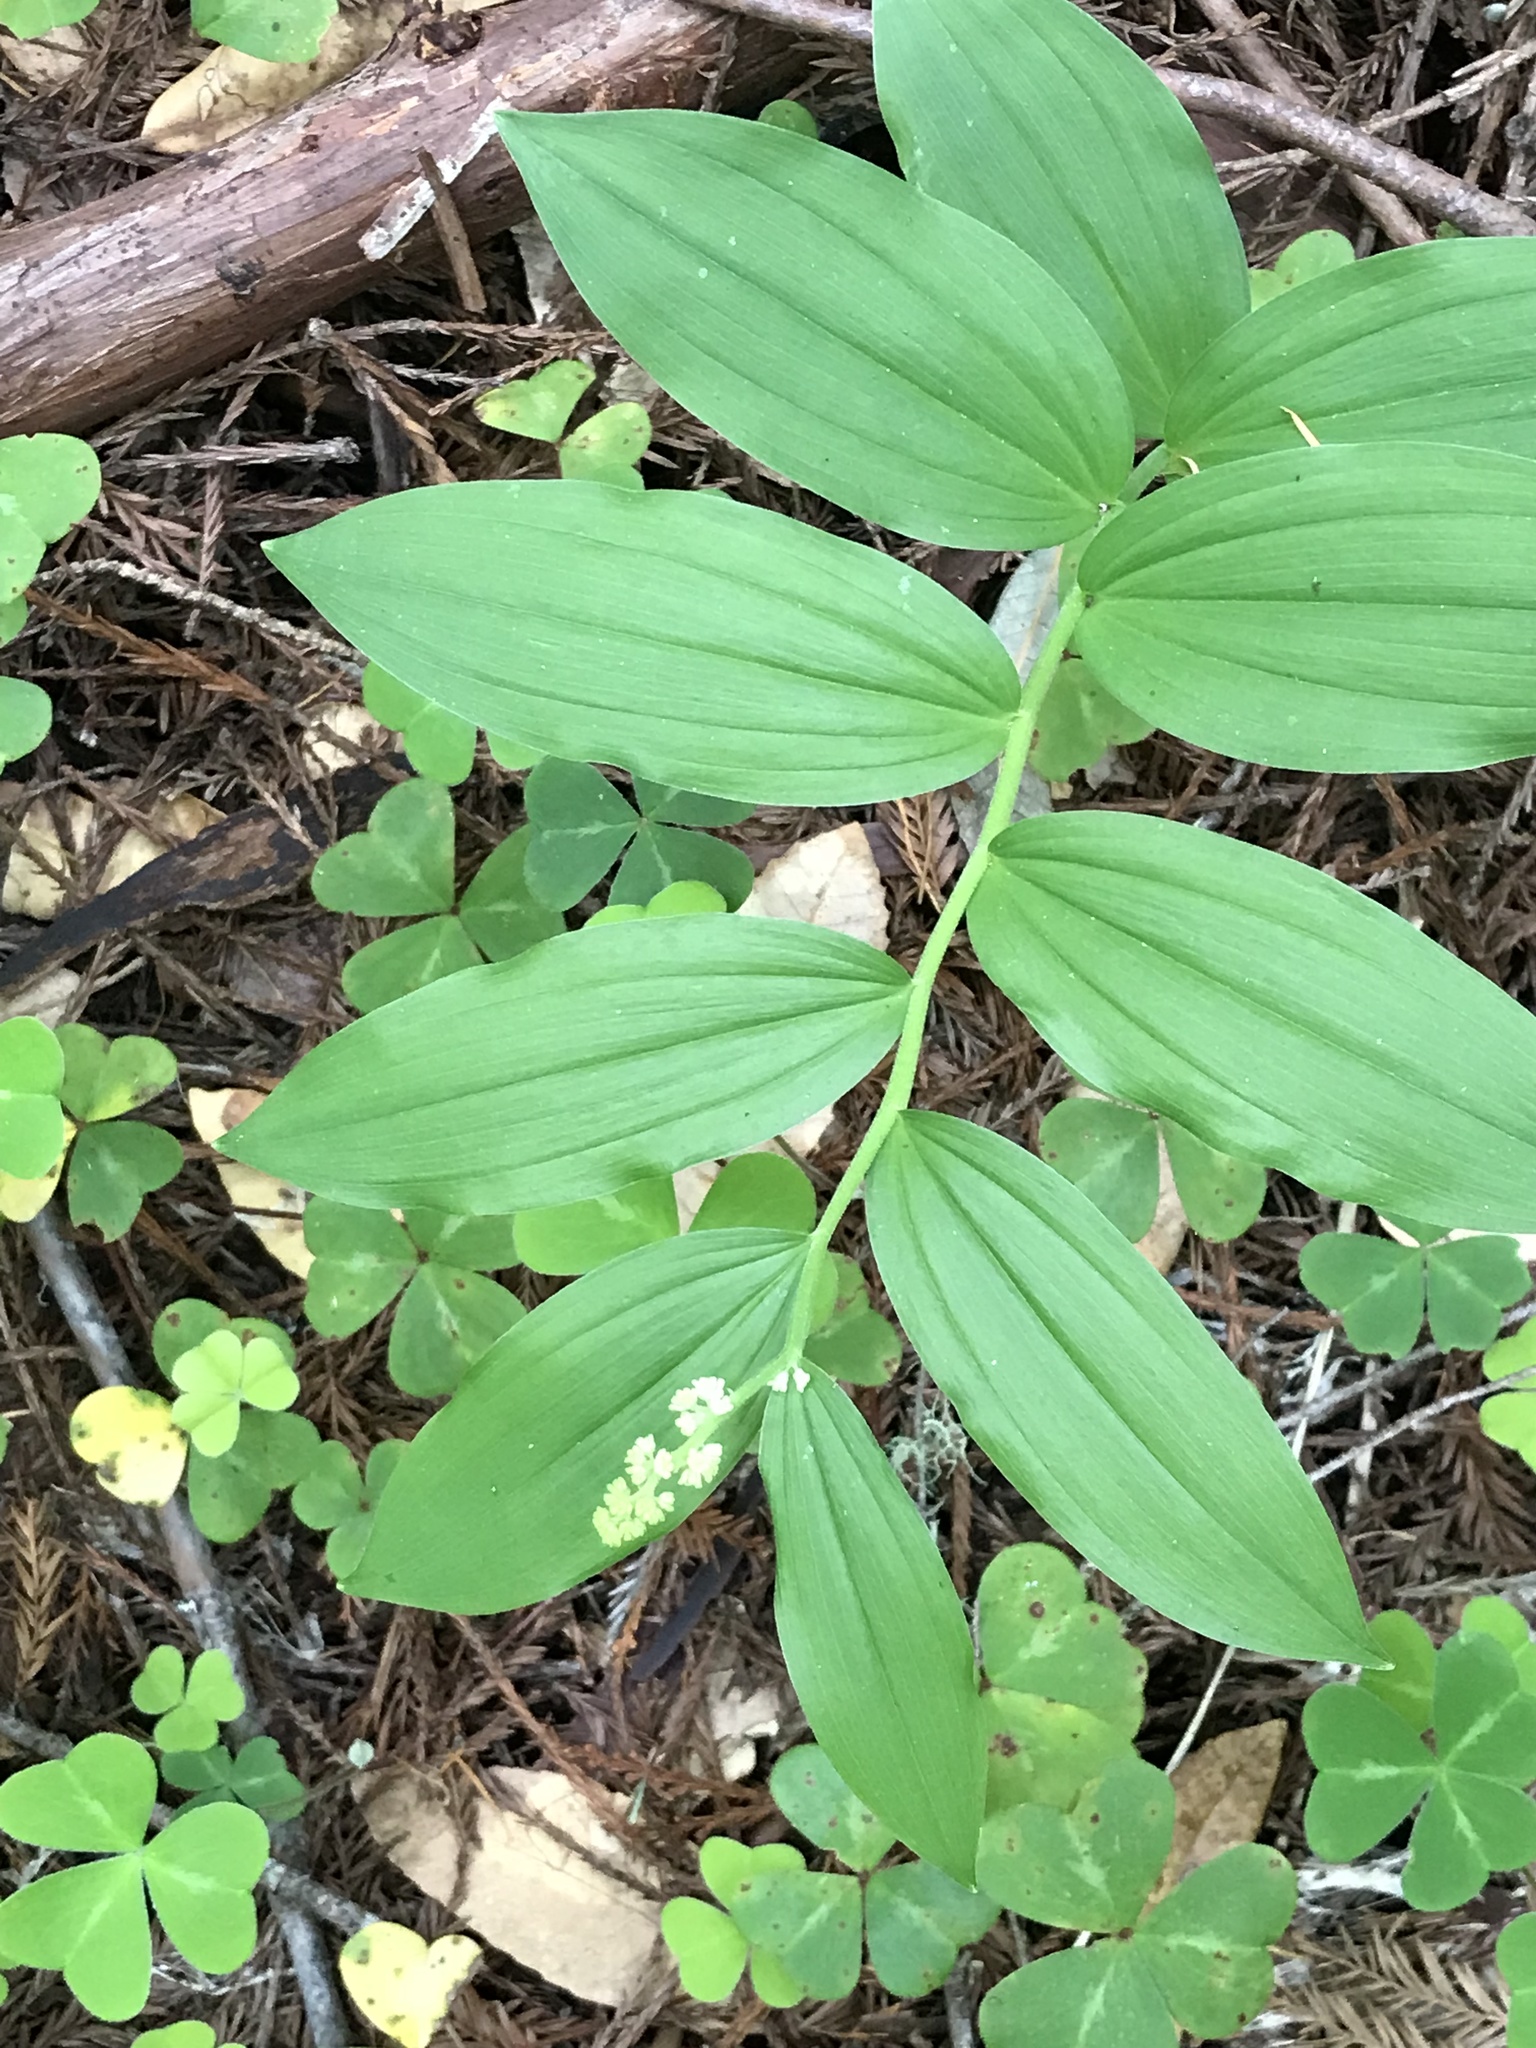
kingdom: Plantae
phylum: Tracheophyta
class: Liliopsida
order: Asparagales
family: Asparagaceae
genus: Maianthemum
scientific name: Maianthemum racemosum
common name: False spikenard
